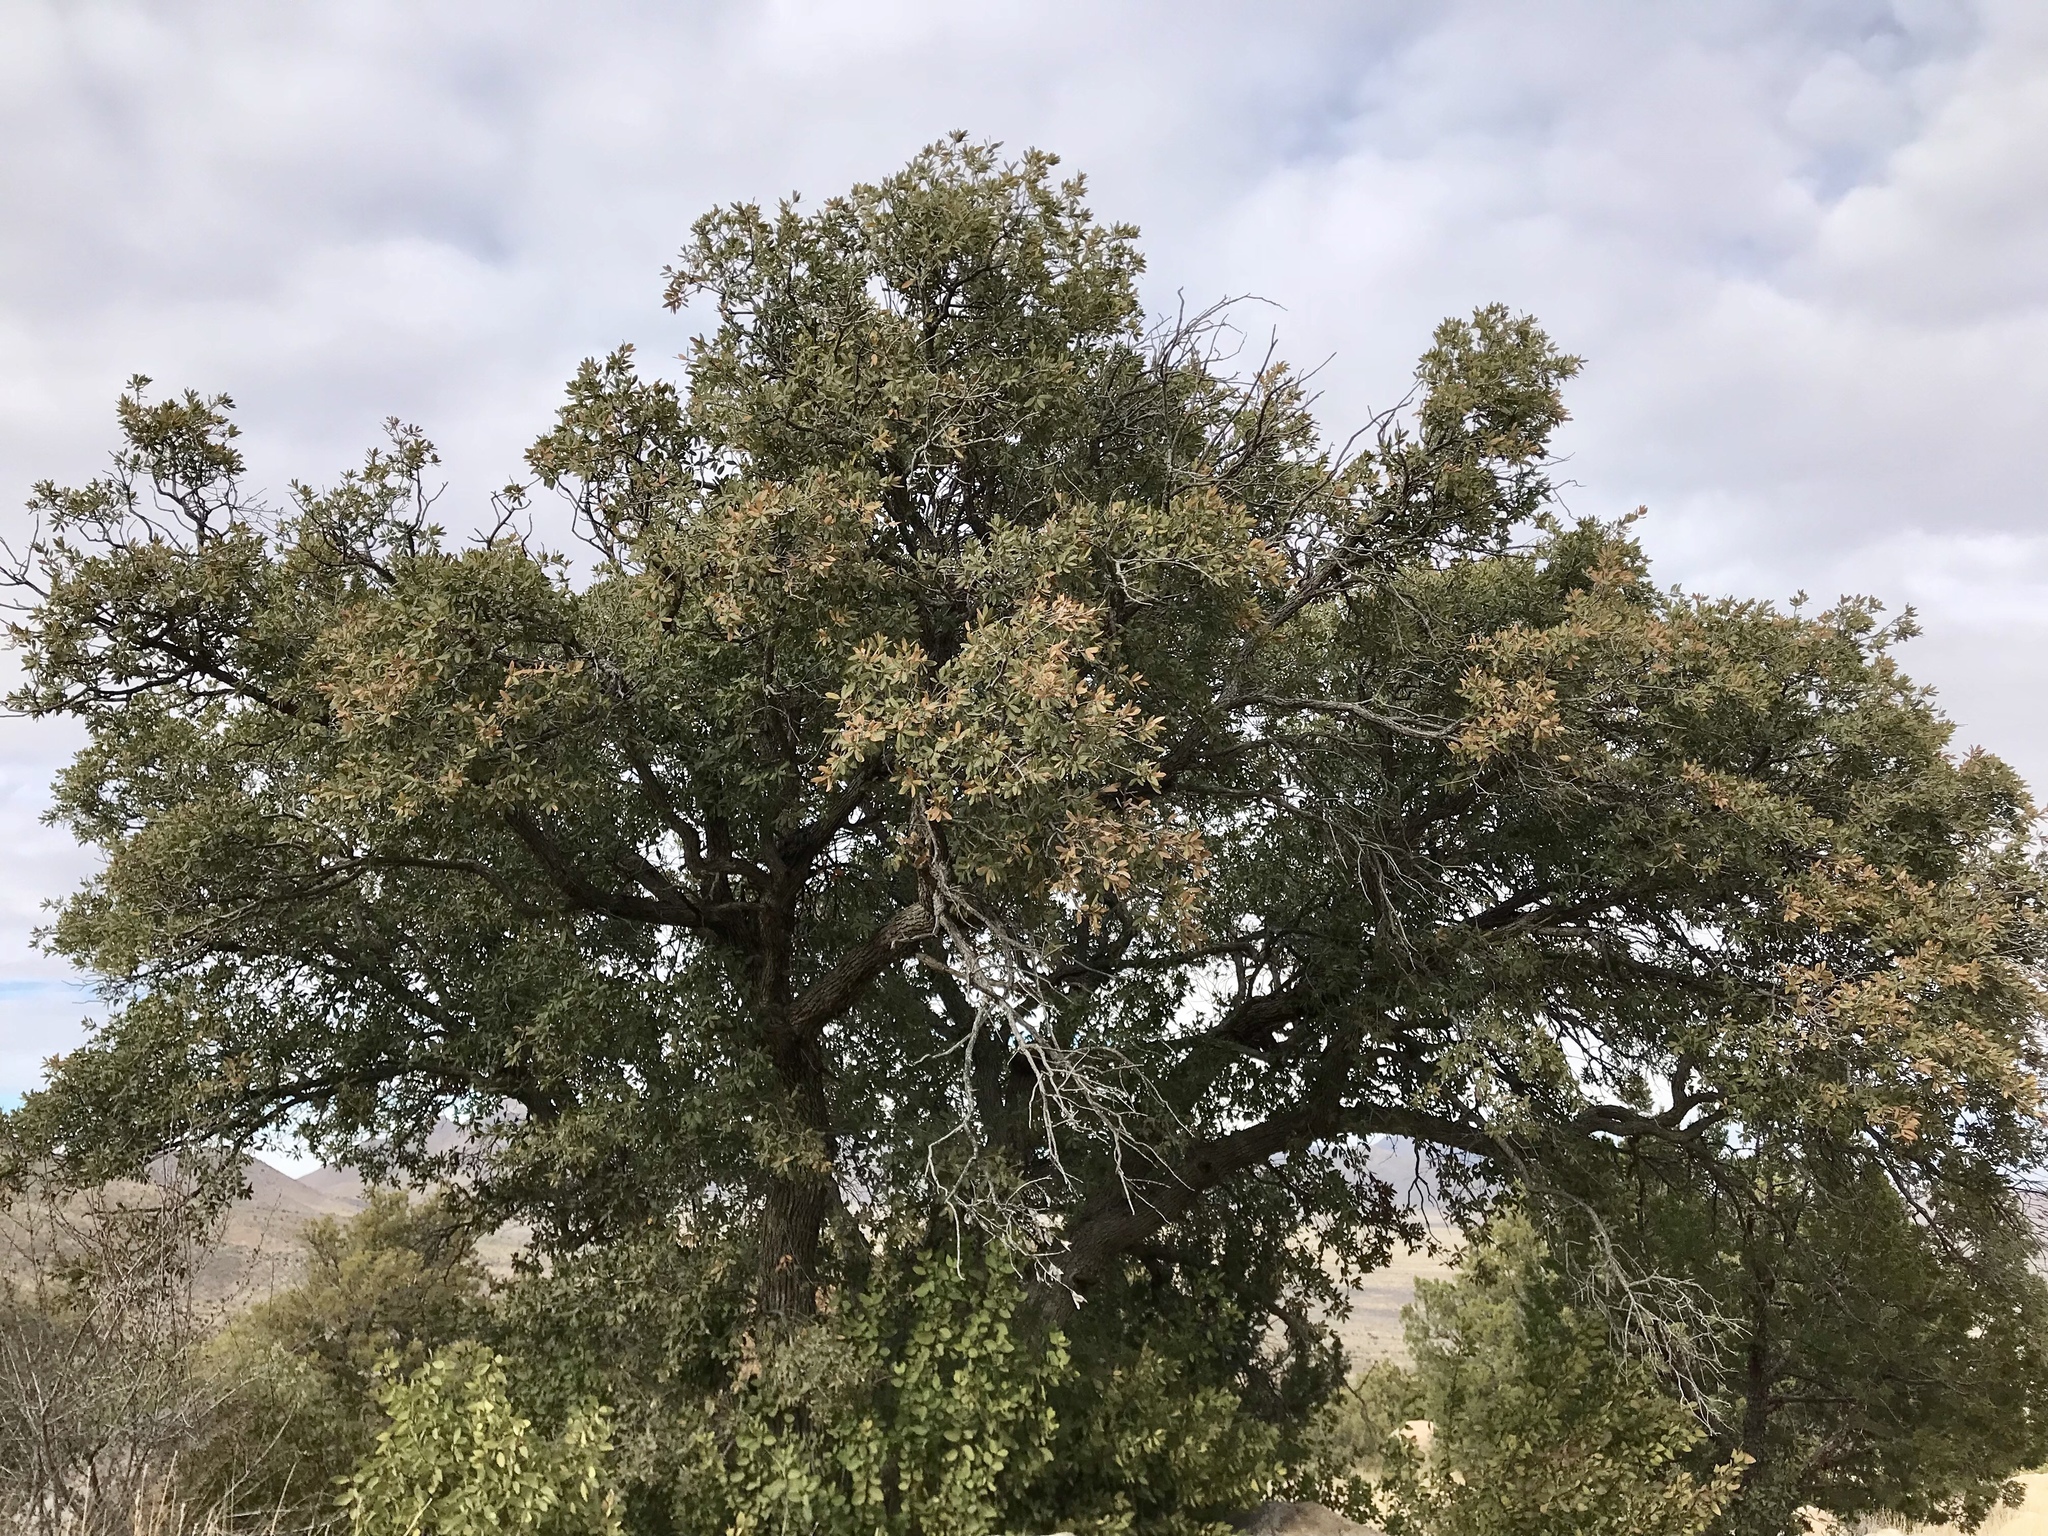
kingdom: Plantae
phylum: Tracheophyta
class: Magnoliopsida
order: Fagales
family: Fagaceae
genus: Quercus
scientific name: Quercus arizonica
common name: Arizona white oak
